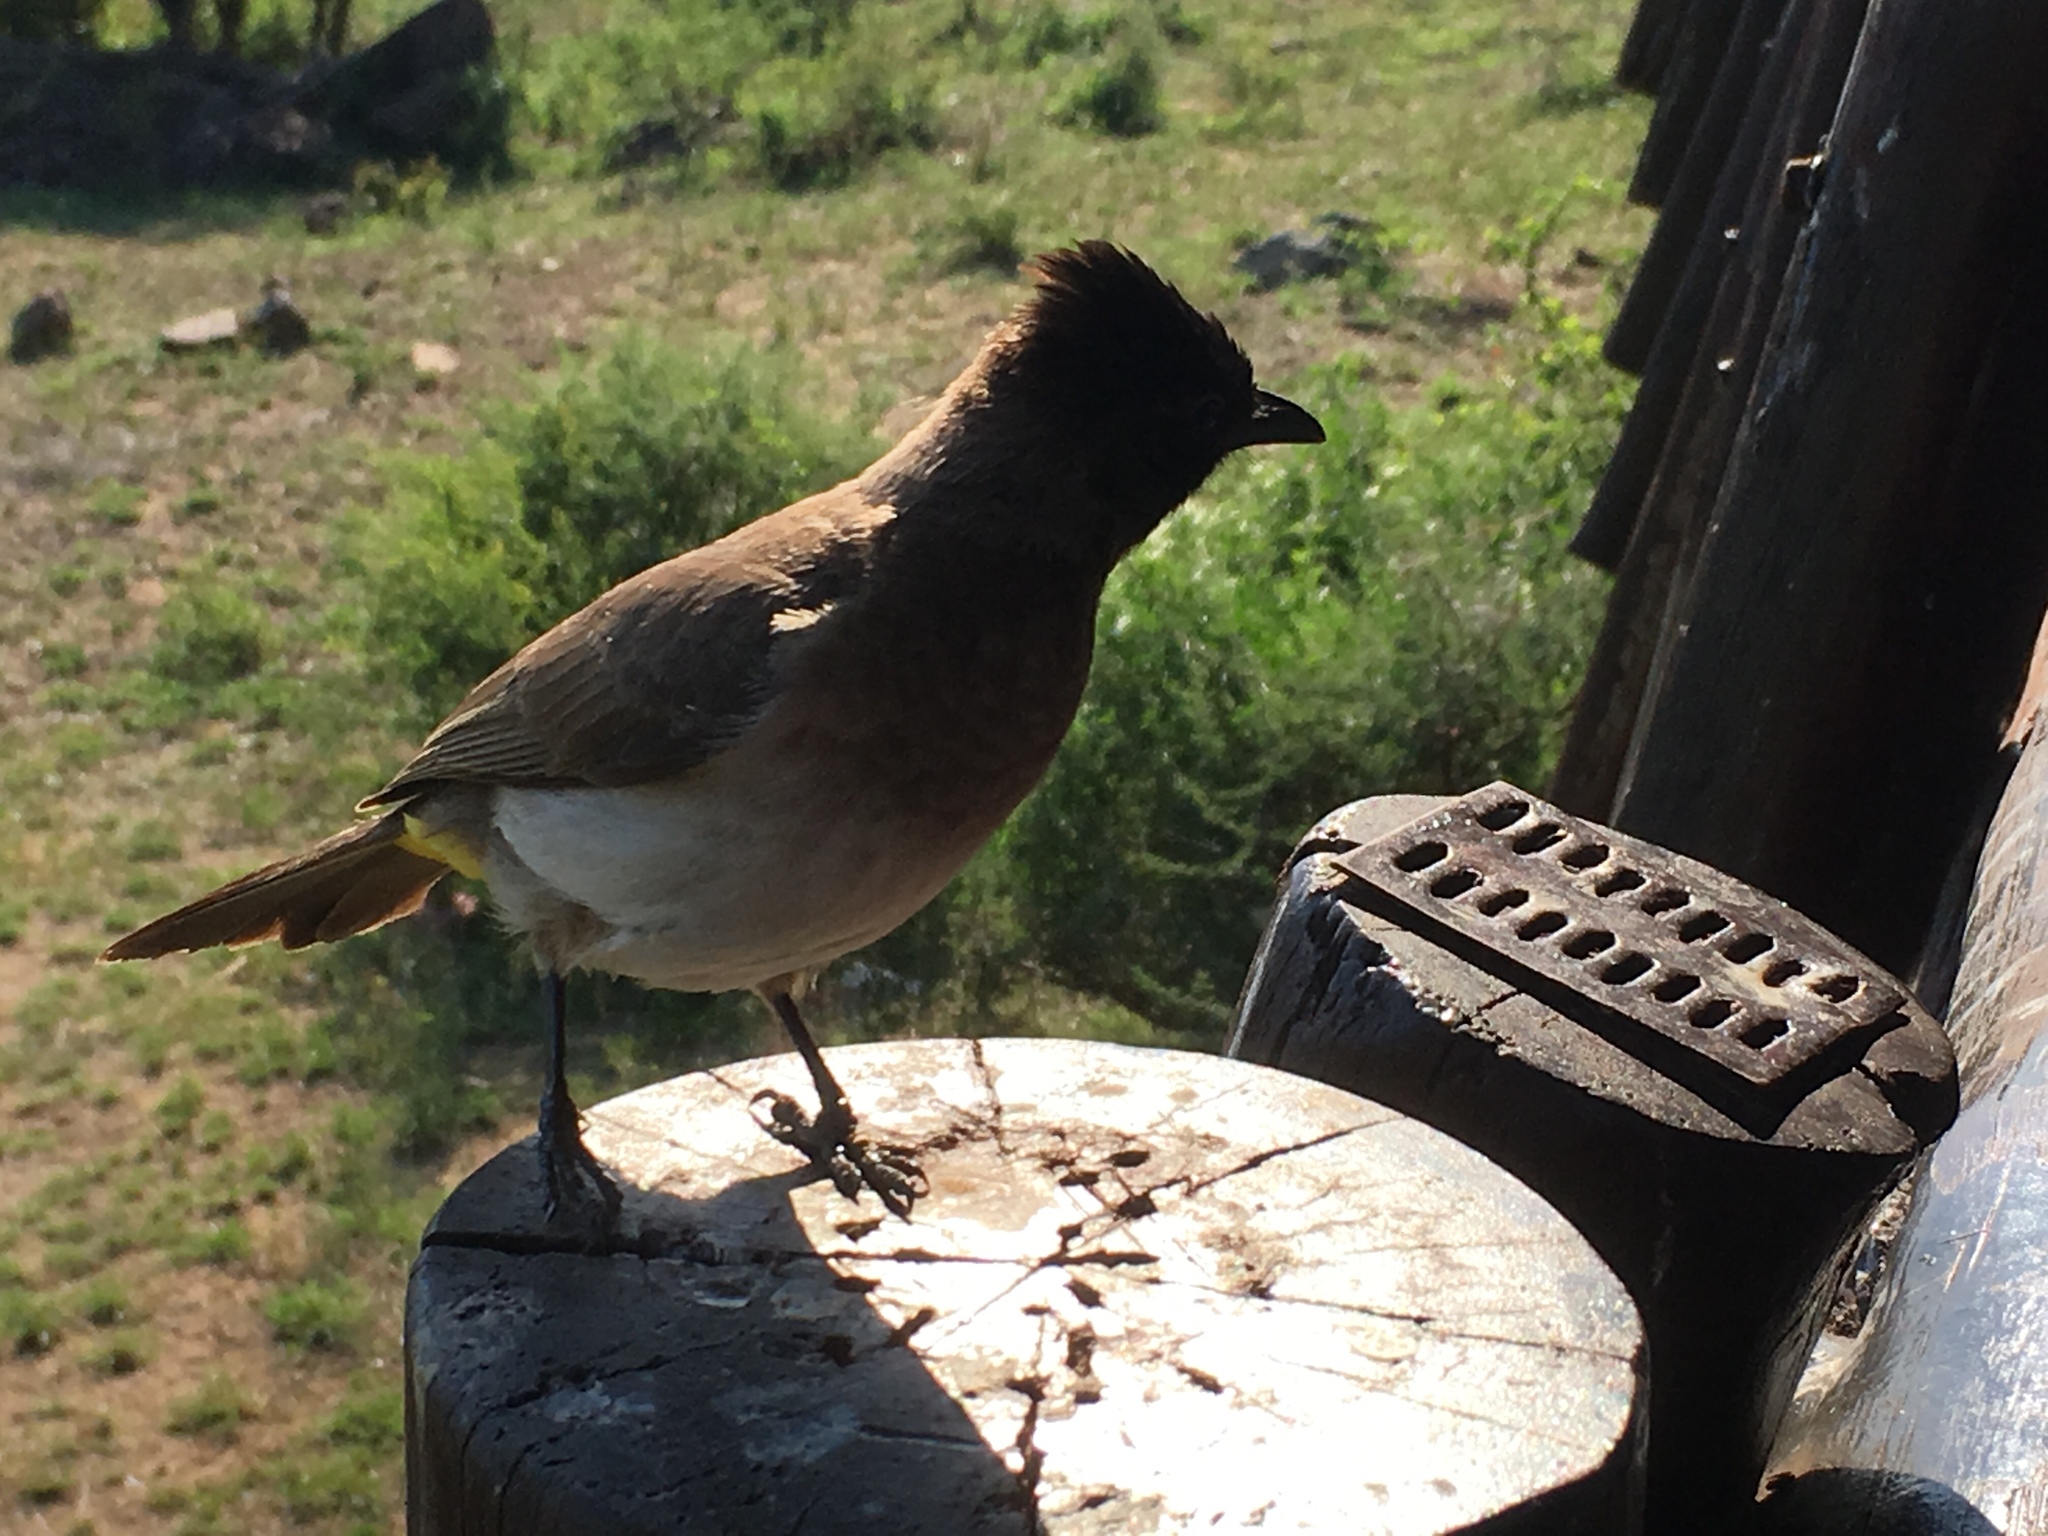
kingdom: Animalia
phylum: Chordata
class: Aves
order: Passeriformes
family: Pycnonotidae
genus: Pycnonotus
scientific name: Pycnonotus barbatus
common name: Common bulbul
